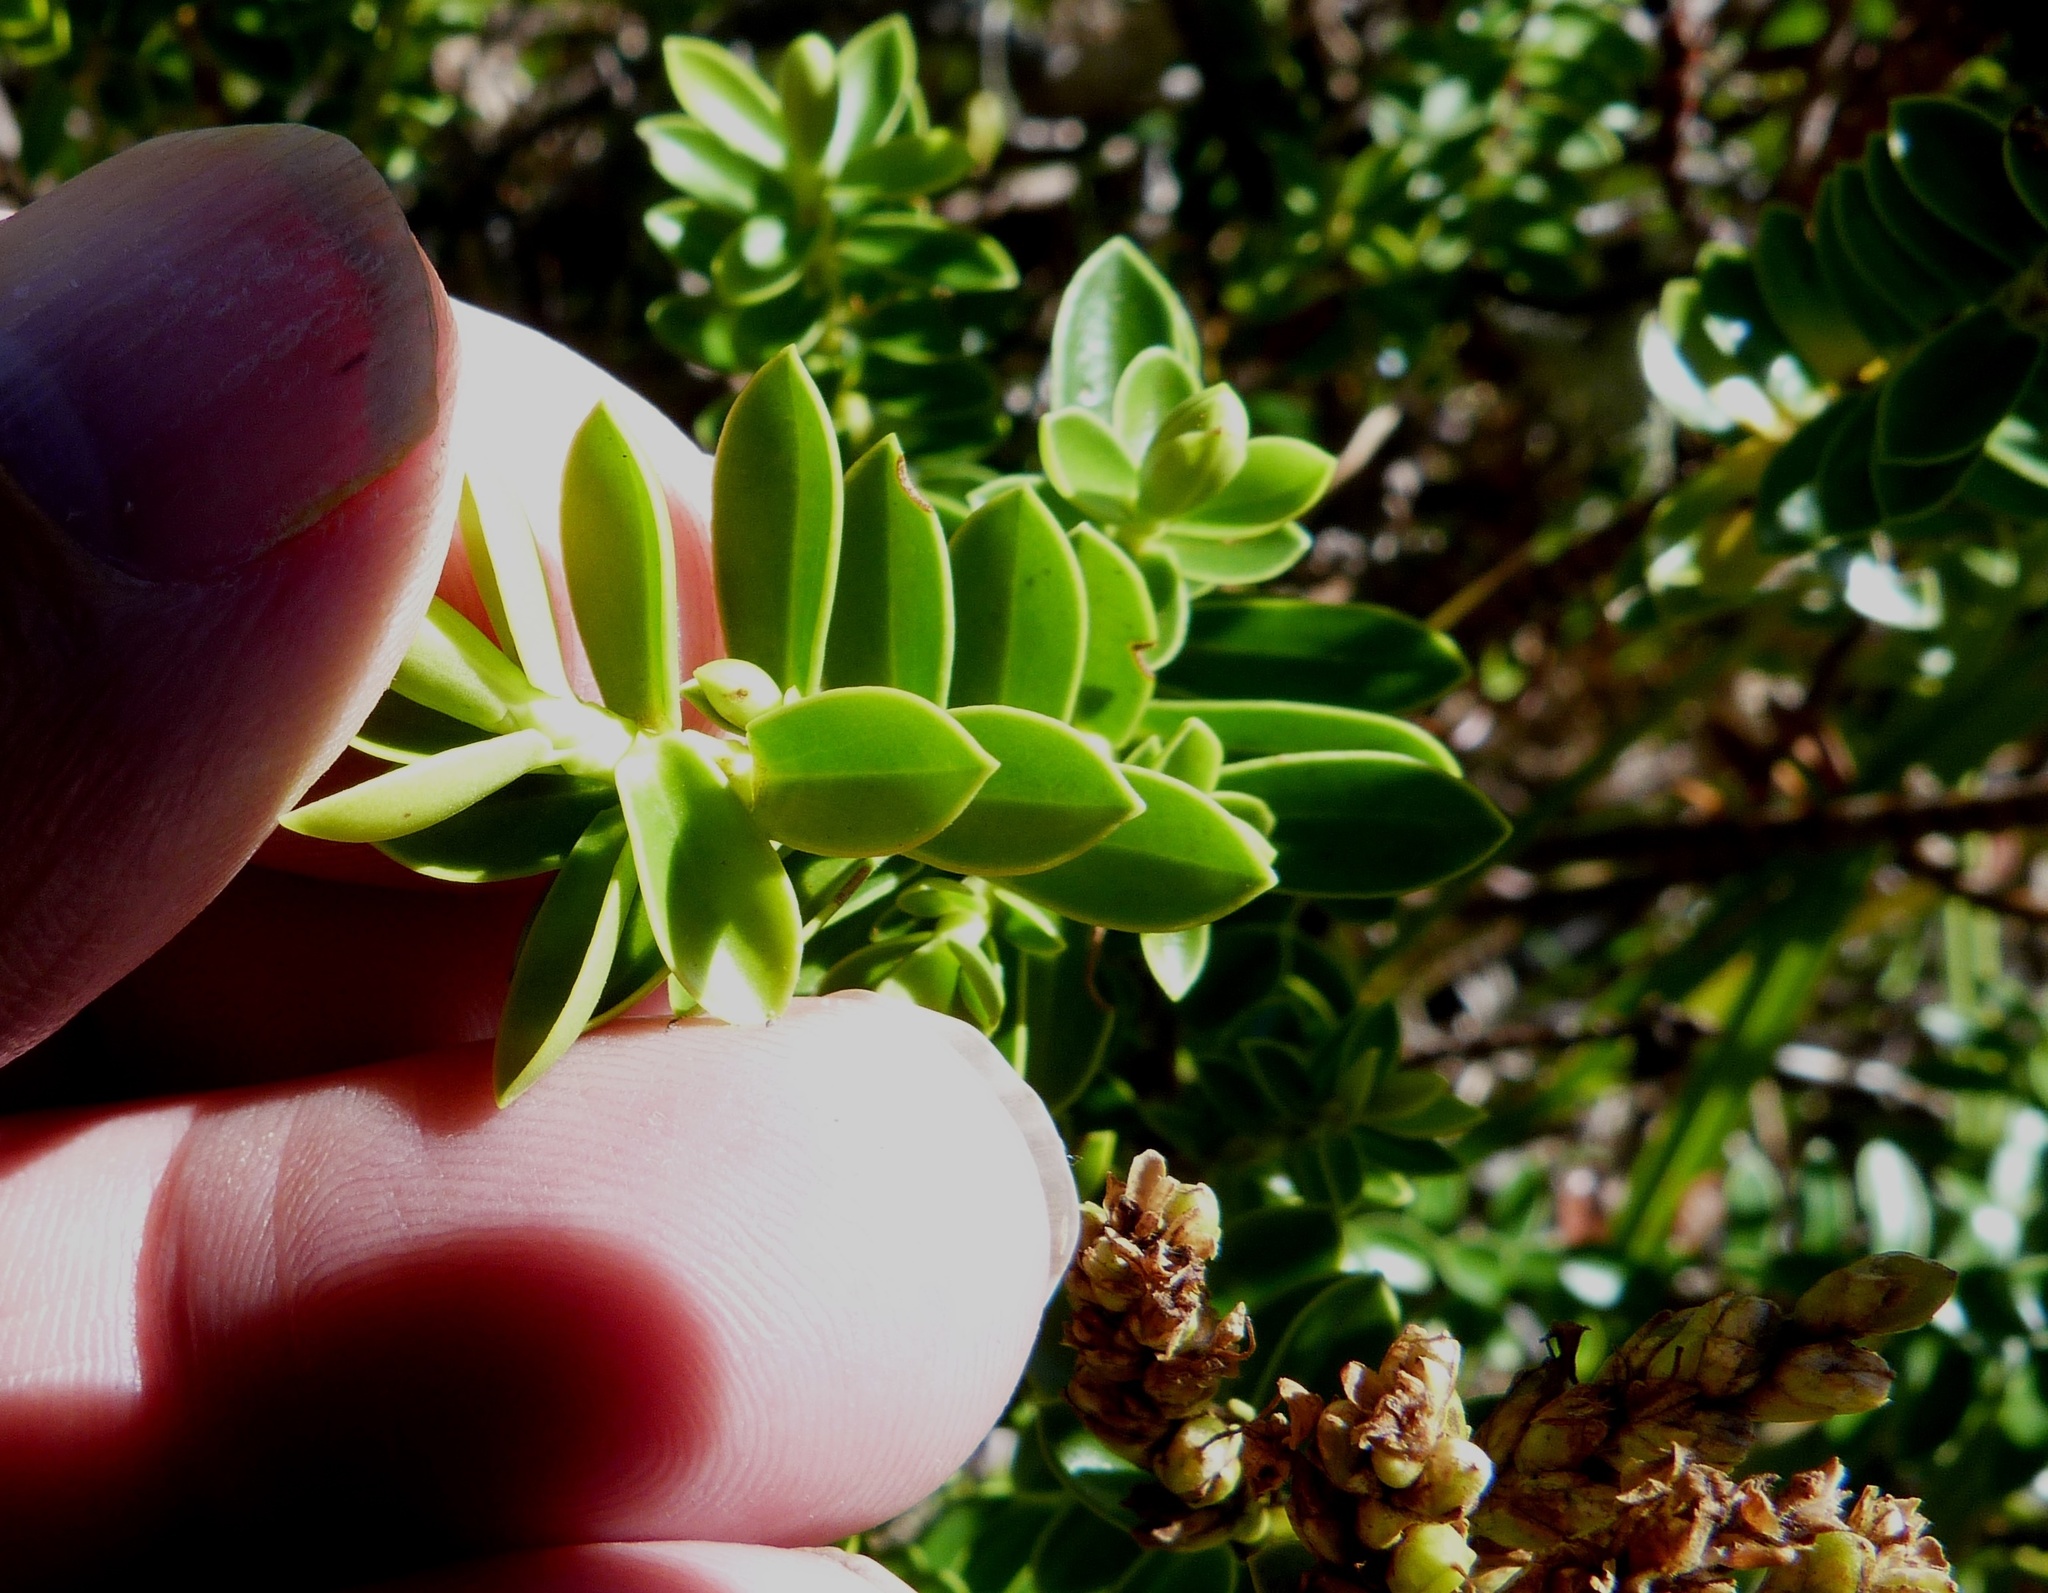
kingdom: Plantae
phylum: Tracheophyta
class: Magnoliopsida
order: Lamiales
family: Plantaginaceae
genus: Veronica
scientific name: Veronica odora
